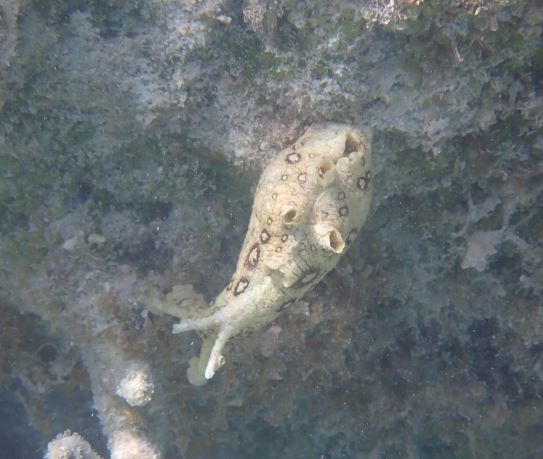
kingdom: Animalia
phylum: Mollusca
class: Gastropoda
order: Aplysiida
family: Aplysiidae
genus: Aplysia
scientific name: Aplysia dactylomela
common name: Large-spotted sea hare
